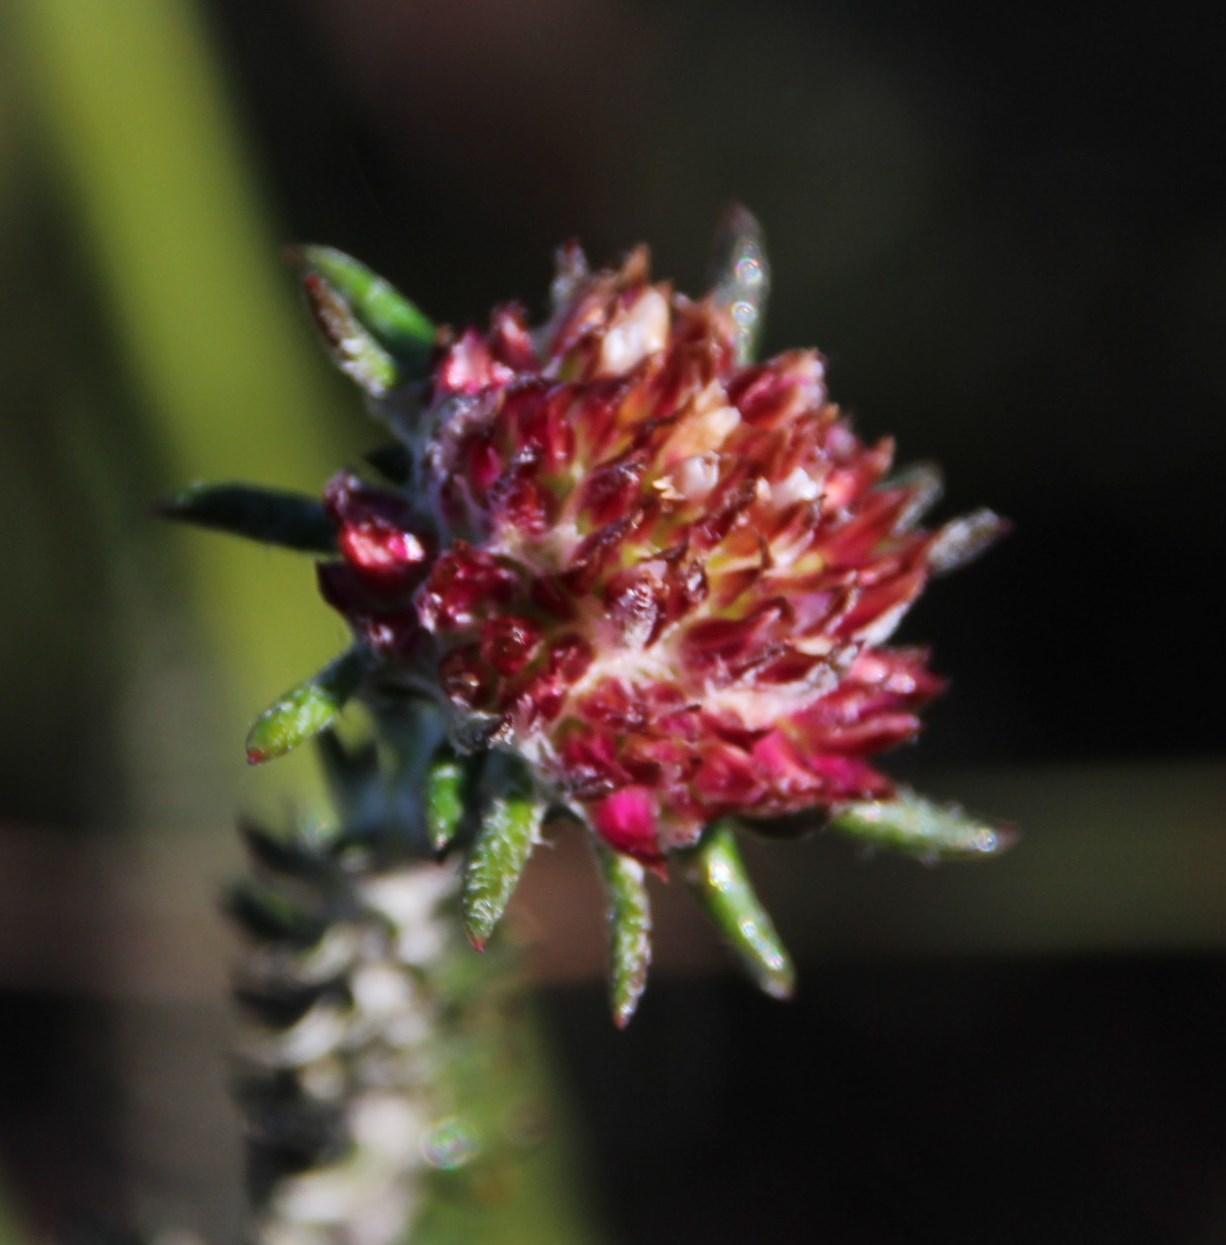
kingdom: Plantae
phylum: Tracheophyta
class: Magnoliopsida
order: Asterales
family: Asteraceae
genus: Metalasia
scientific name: Metalasia capitata
